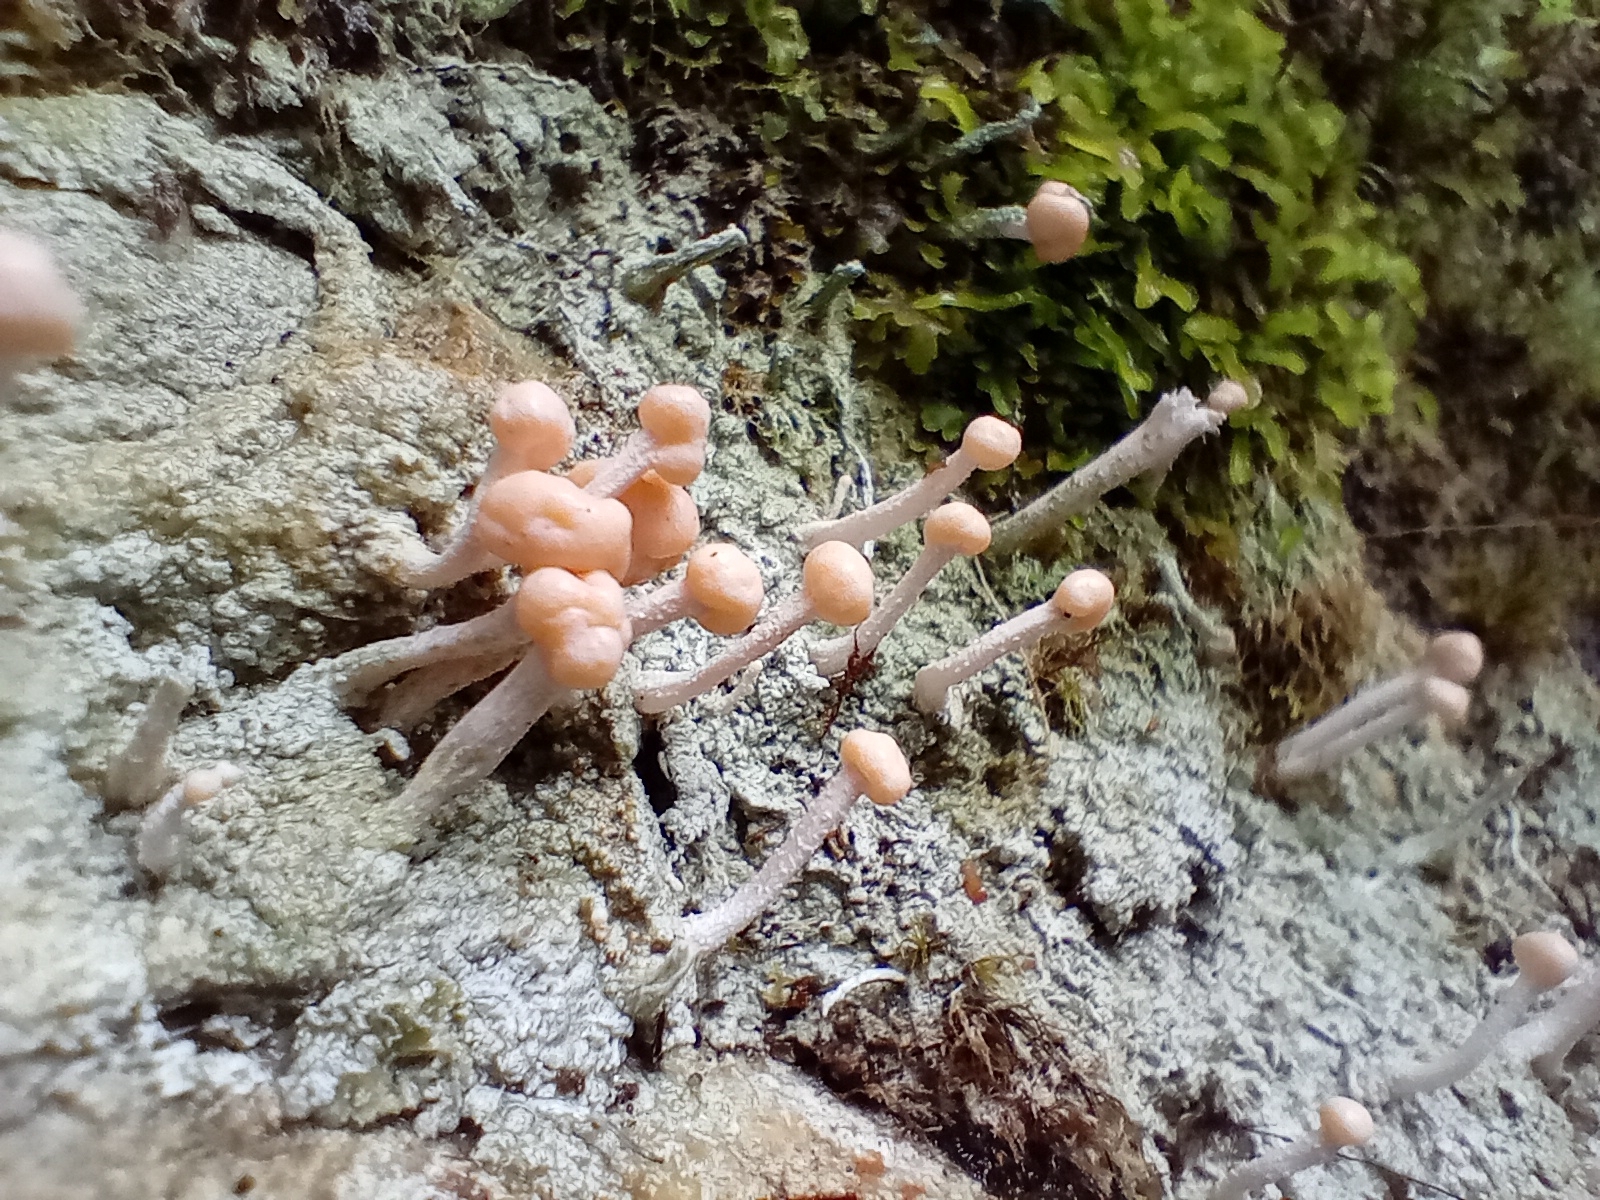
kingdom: Fungi
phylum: Ascomycota
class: Lecanoromycetes
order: Pertusariales
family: Icmadophilaceae
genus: Dibaeis
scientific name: Dibaeis arcuata
